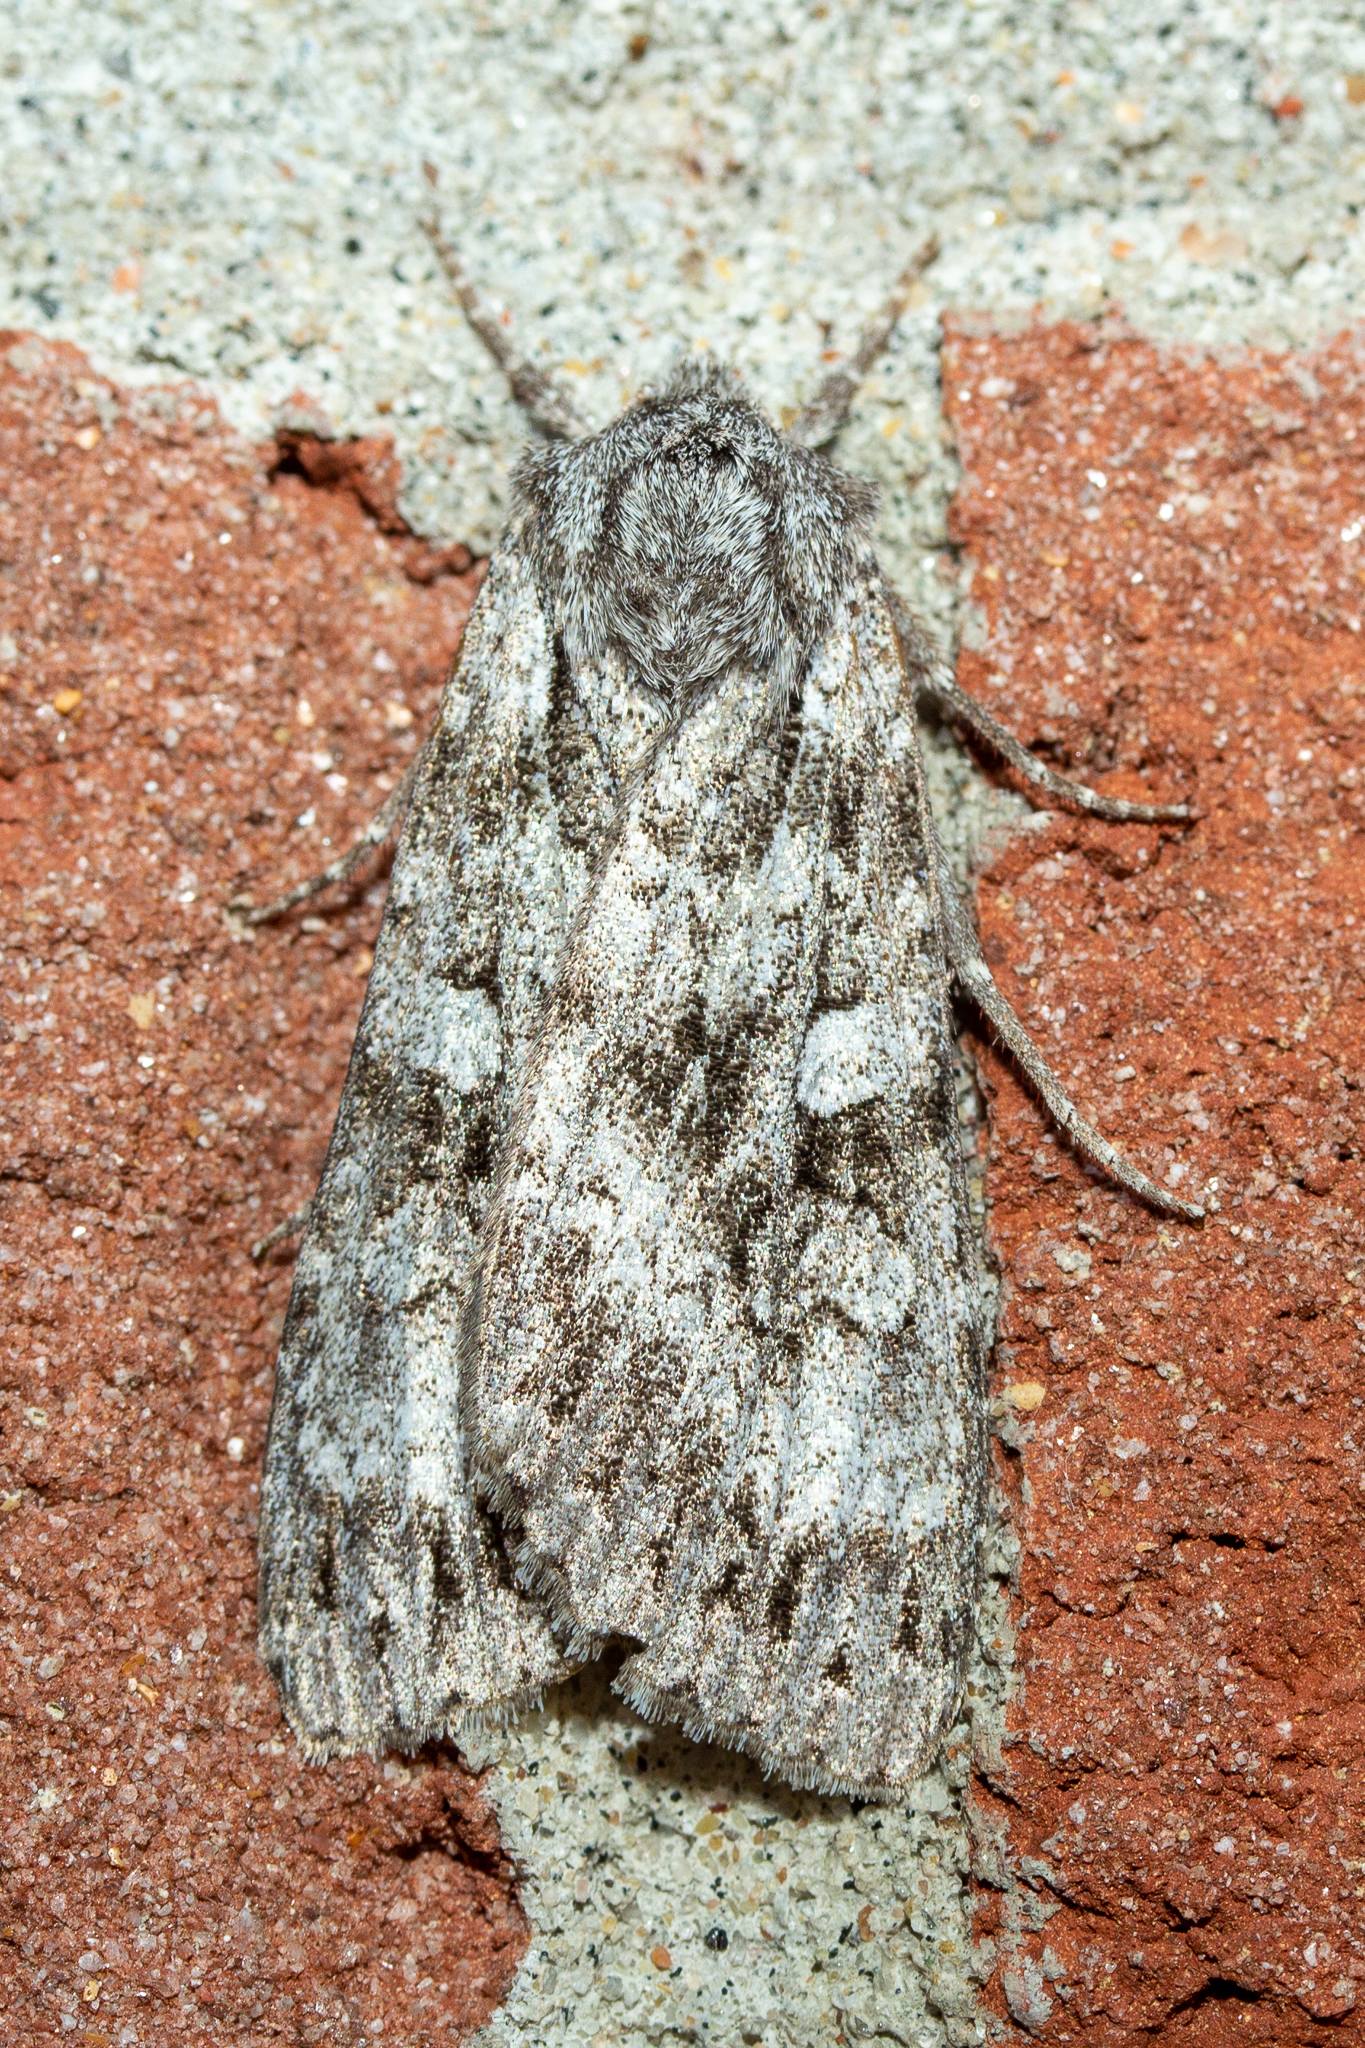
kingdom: Animalia
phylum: Arthropoda
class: Insecta
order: Lepidoptera
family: Noctuidae
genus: Eurois
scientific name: Eurois occulta
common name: Great brocade
